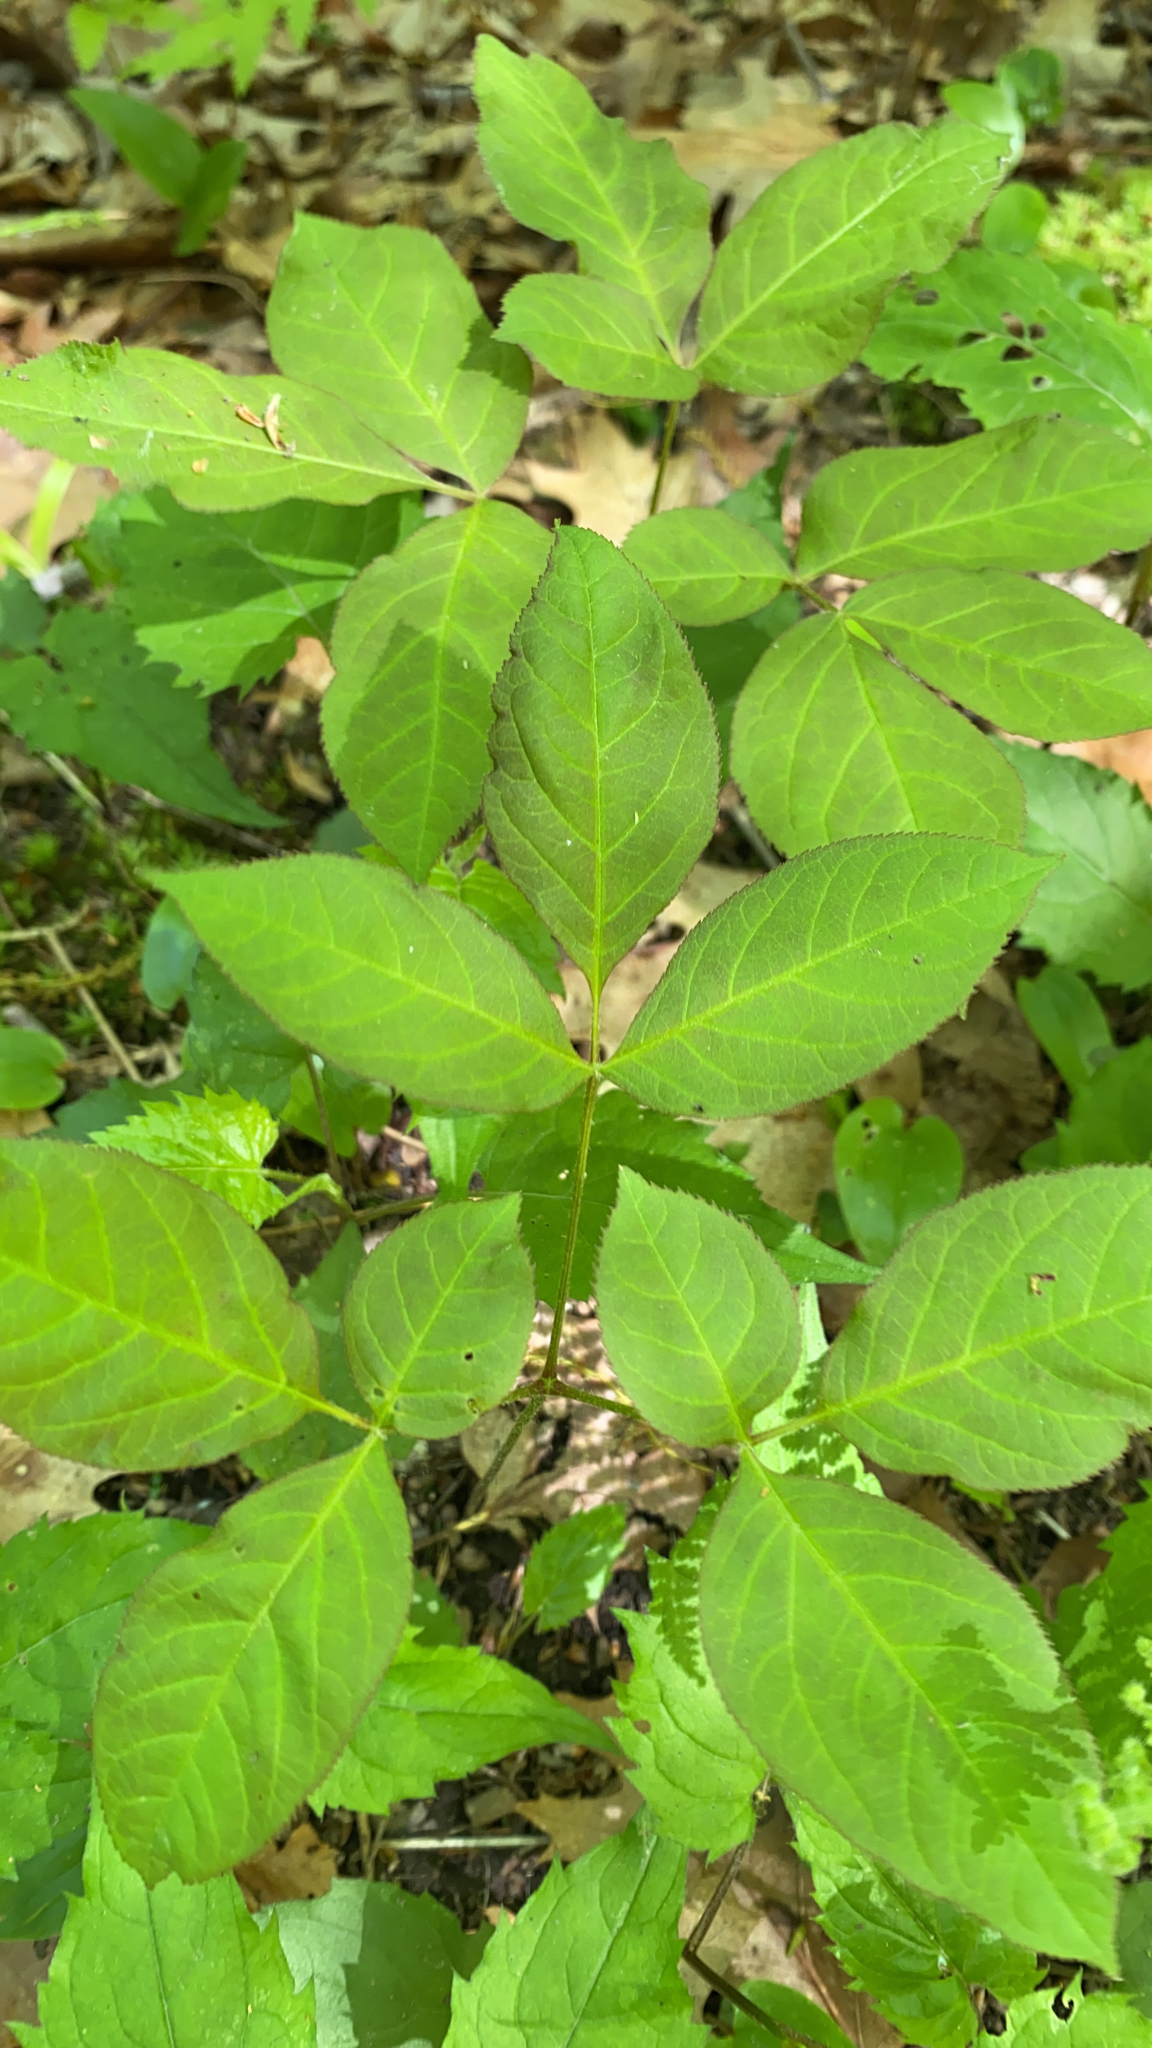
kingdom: Plantae
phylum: Tracheophyta
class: Magnoliopsida
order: Apiales
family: Araliaceae
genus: Aralia
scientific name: Aralia nudicaulis
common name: Wild sarsaparilla
